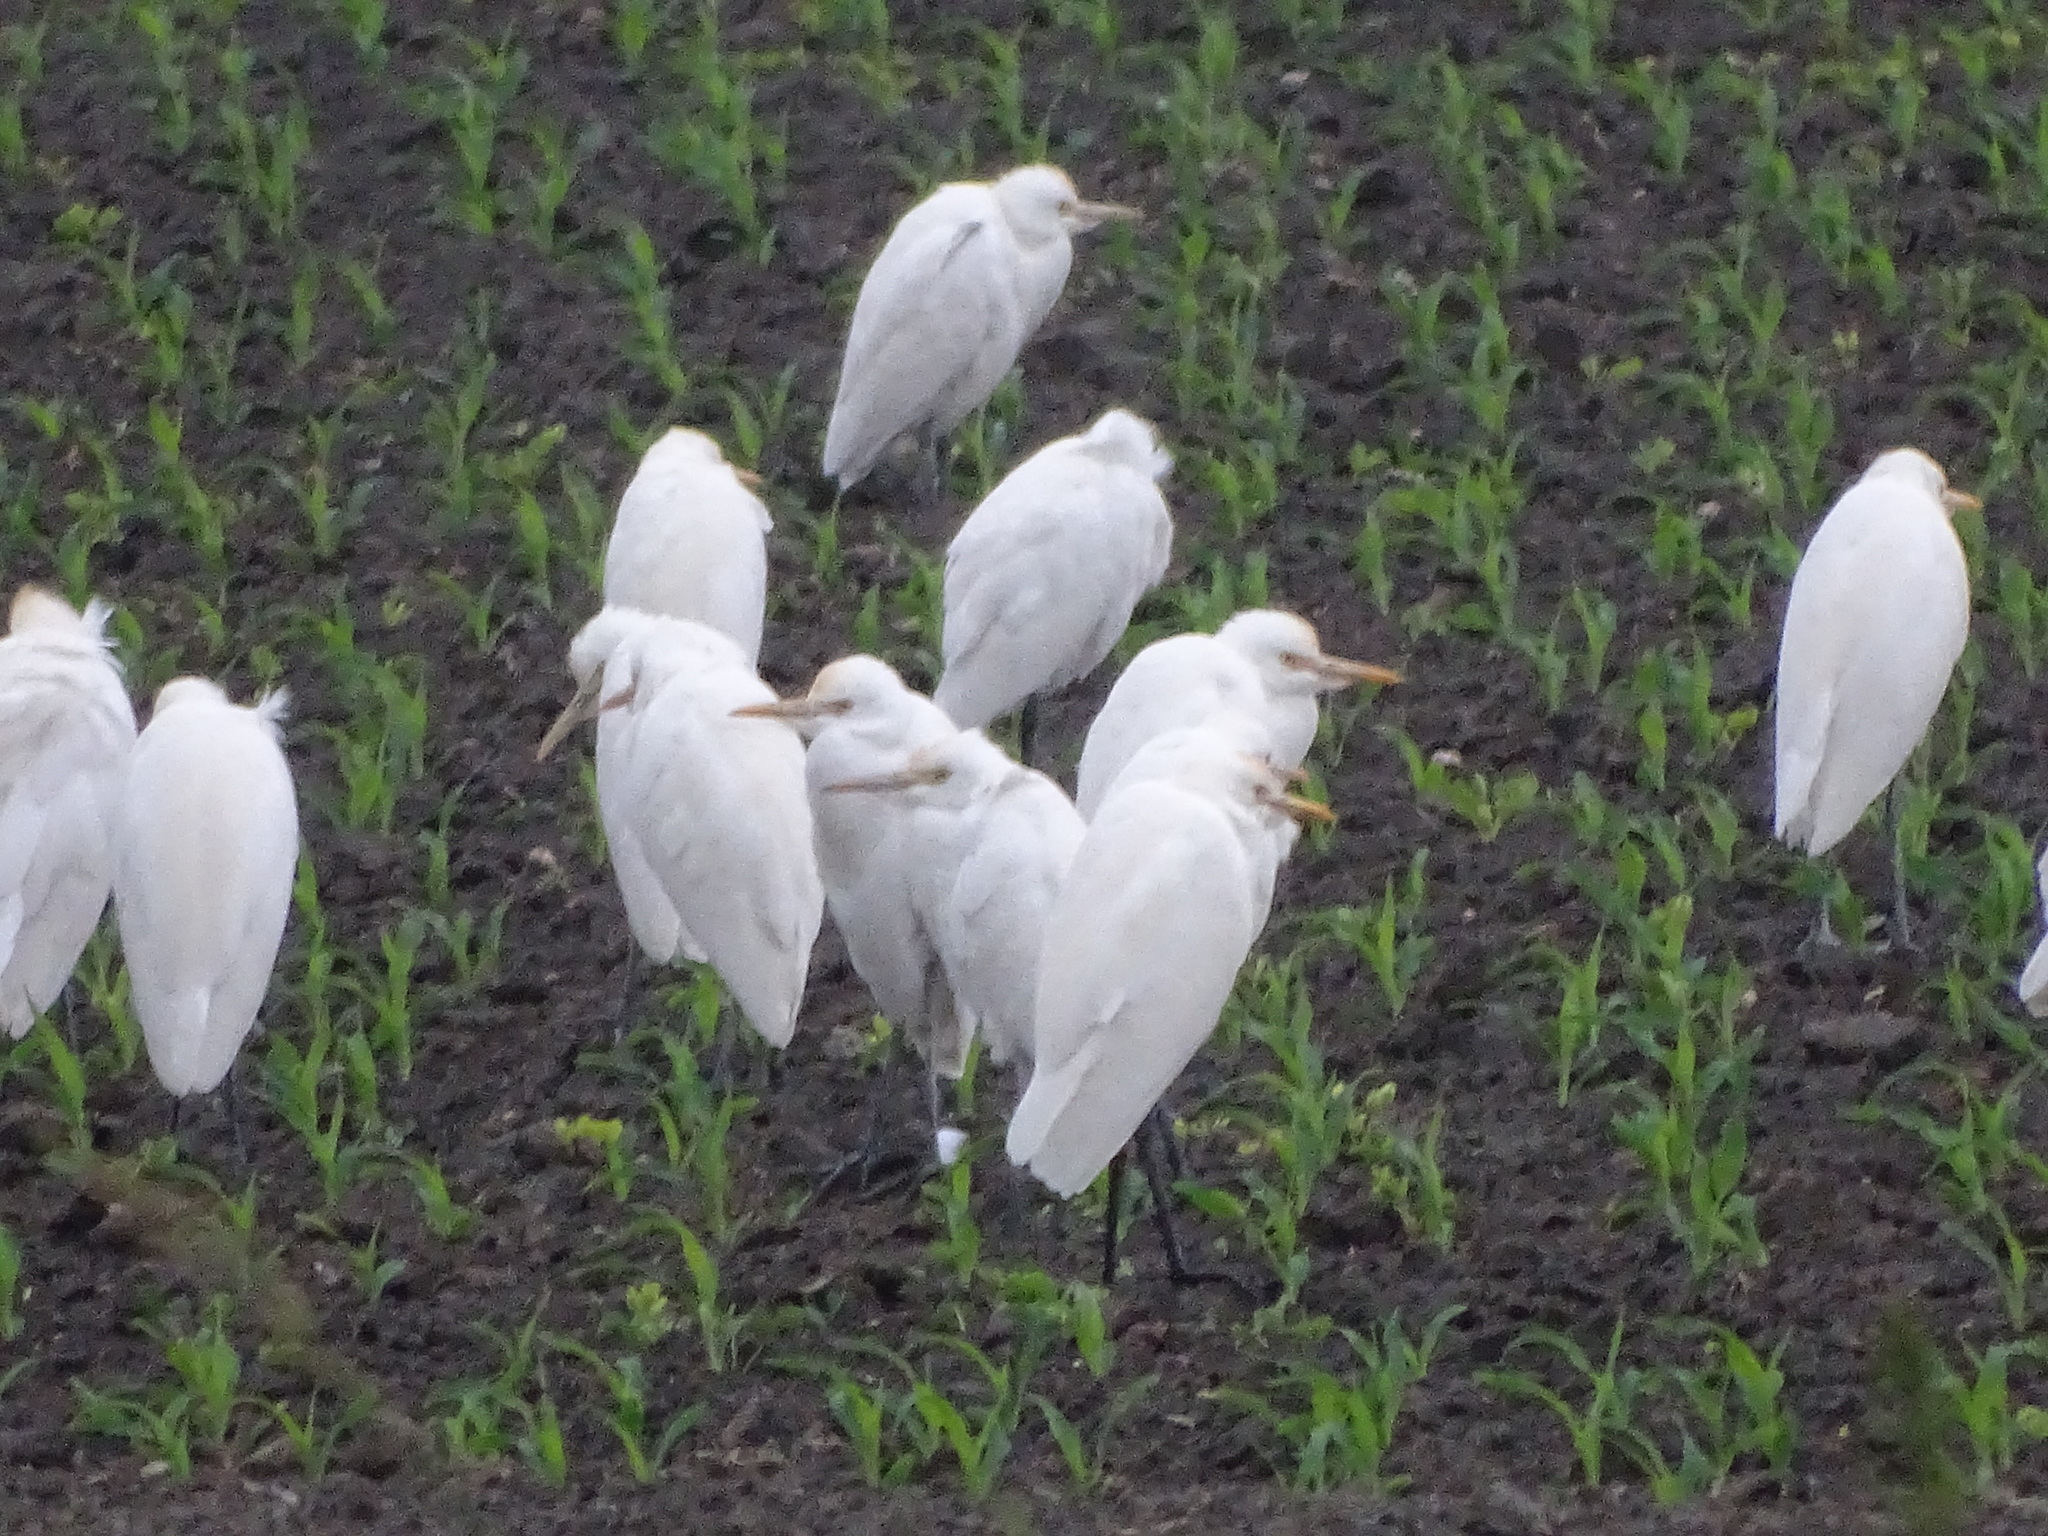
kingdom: Animalia
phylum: Chordata
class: Aves
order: Pelecaniformes
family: Ardeidae
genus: Bubulcus
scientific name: Bubulcus coromandus
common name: Eastern cattle egret
